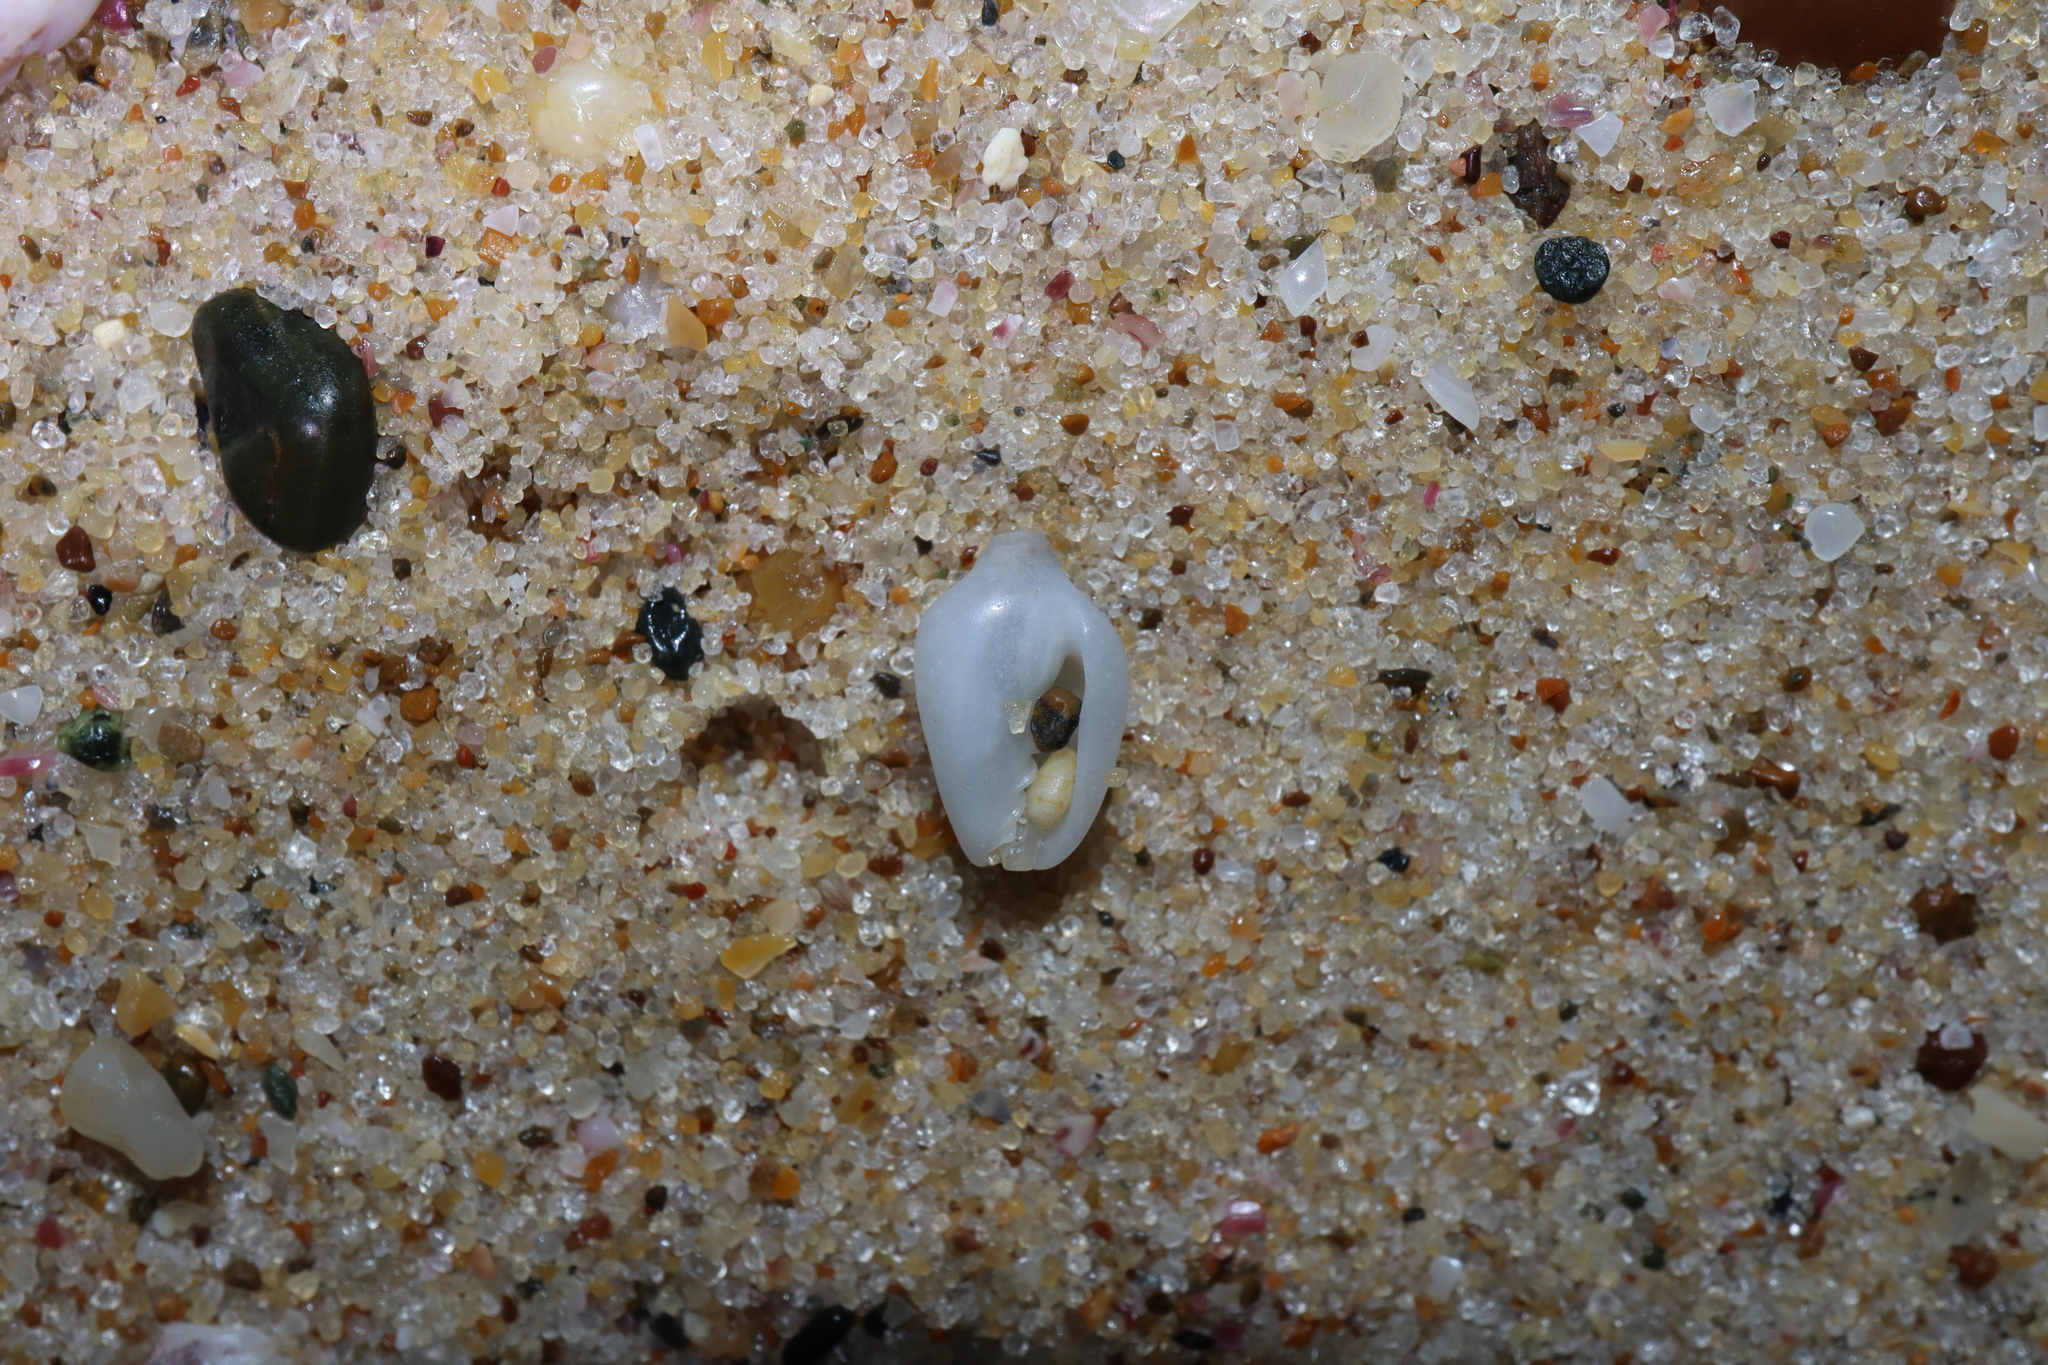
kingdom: Animalia
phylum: Mollusca
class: Gastropoda
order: Neogastropoda
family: Marginellidae
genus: Austroginella
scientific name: Austroginella johnstoni
